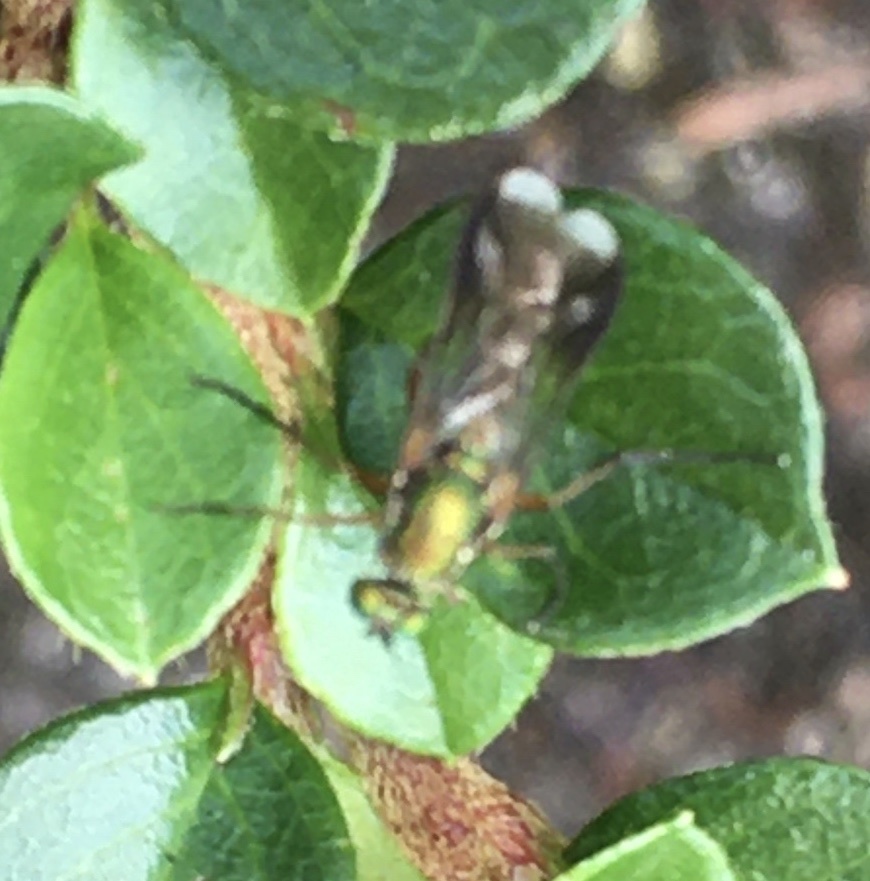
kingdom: Animalia
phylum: Arthropoda
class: Insecta
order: Diptera
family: Dolichopodidae
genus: Poecilobothrus
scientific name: Poecilobothrus nobilitatus
